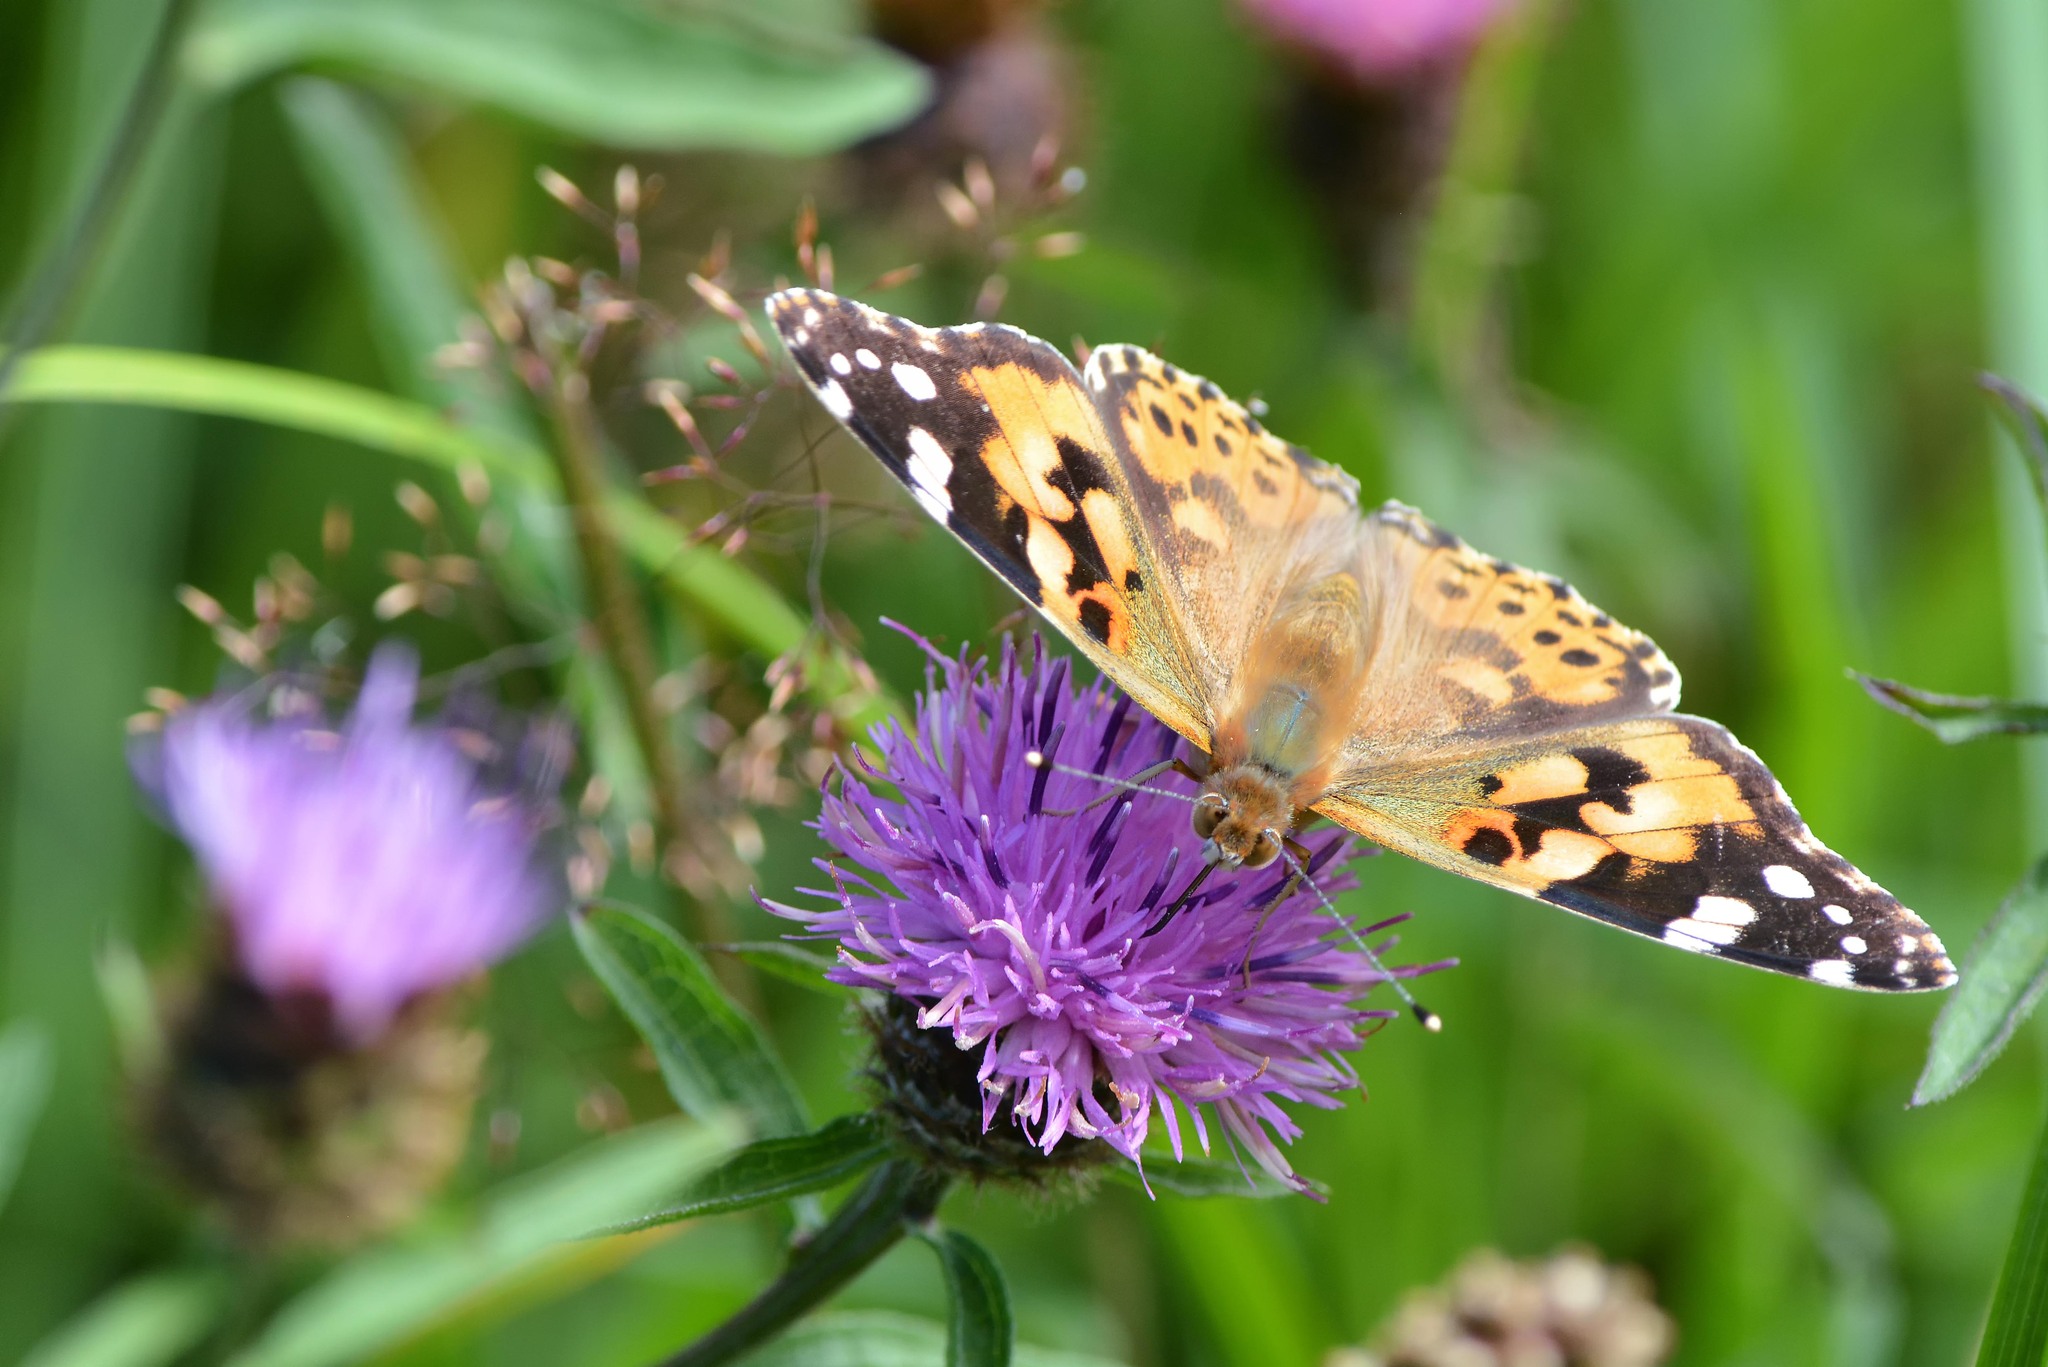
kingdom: Animalia
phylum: Arthropoda
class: Insecta
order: Lepidoptera
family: Nymphalidae
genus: Vanessa
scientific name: Vanessa cardui
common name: Painted lady
